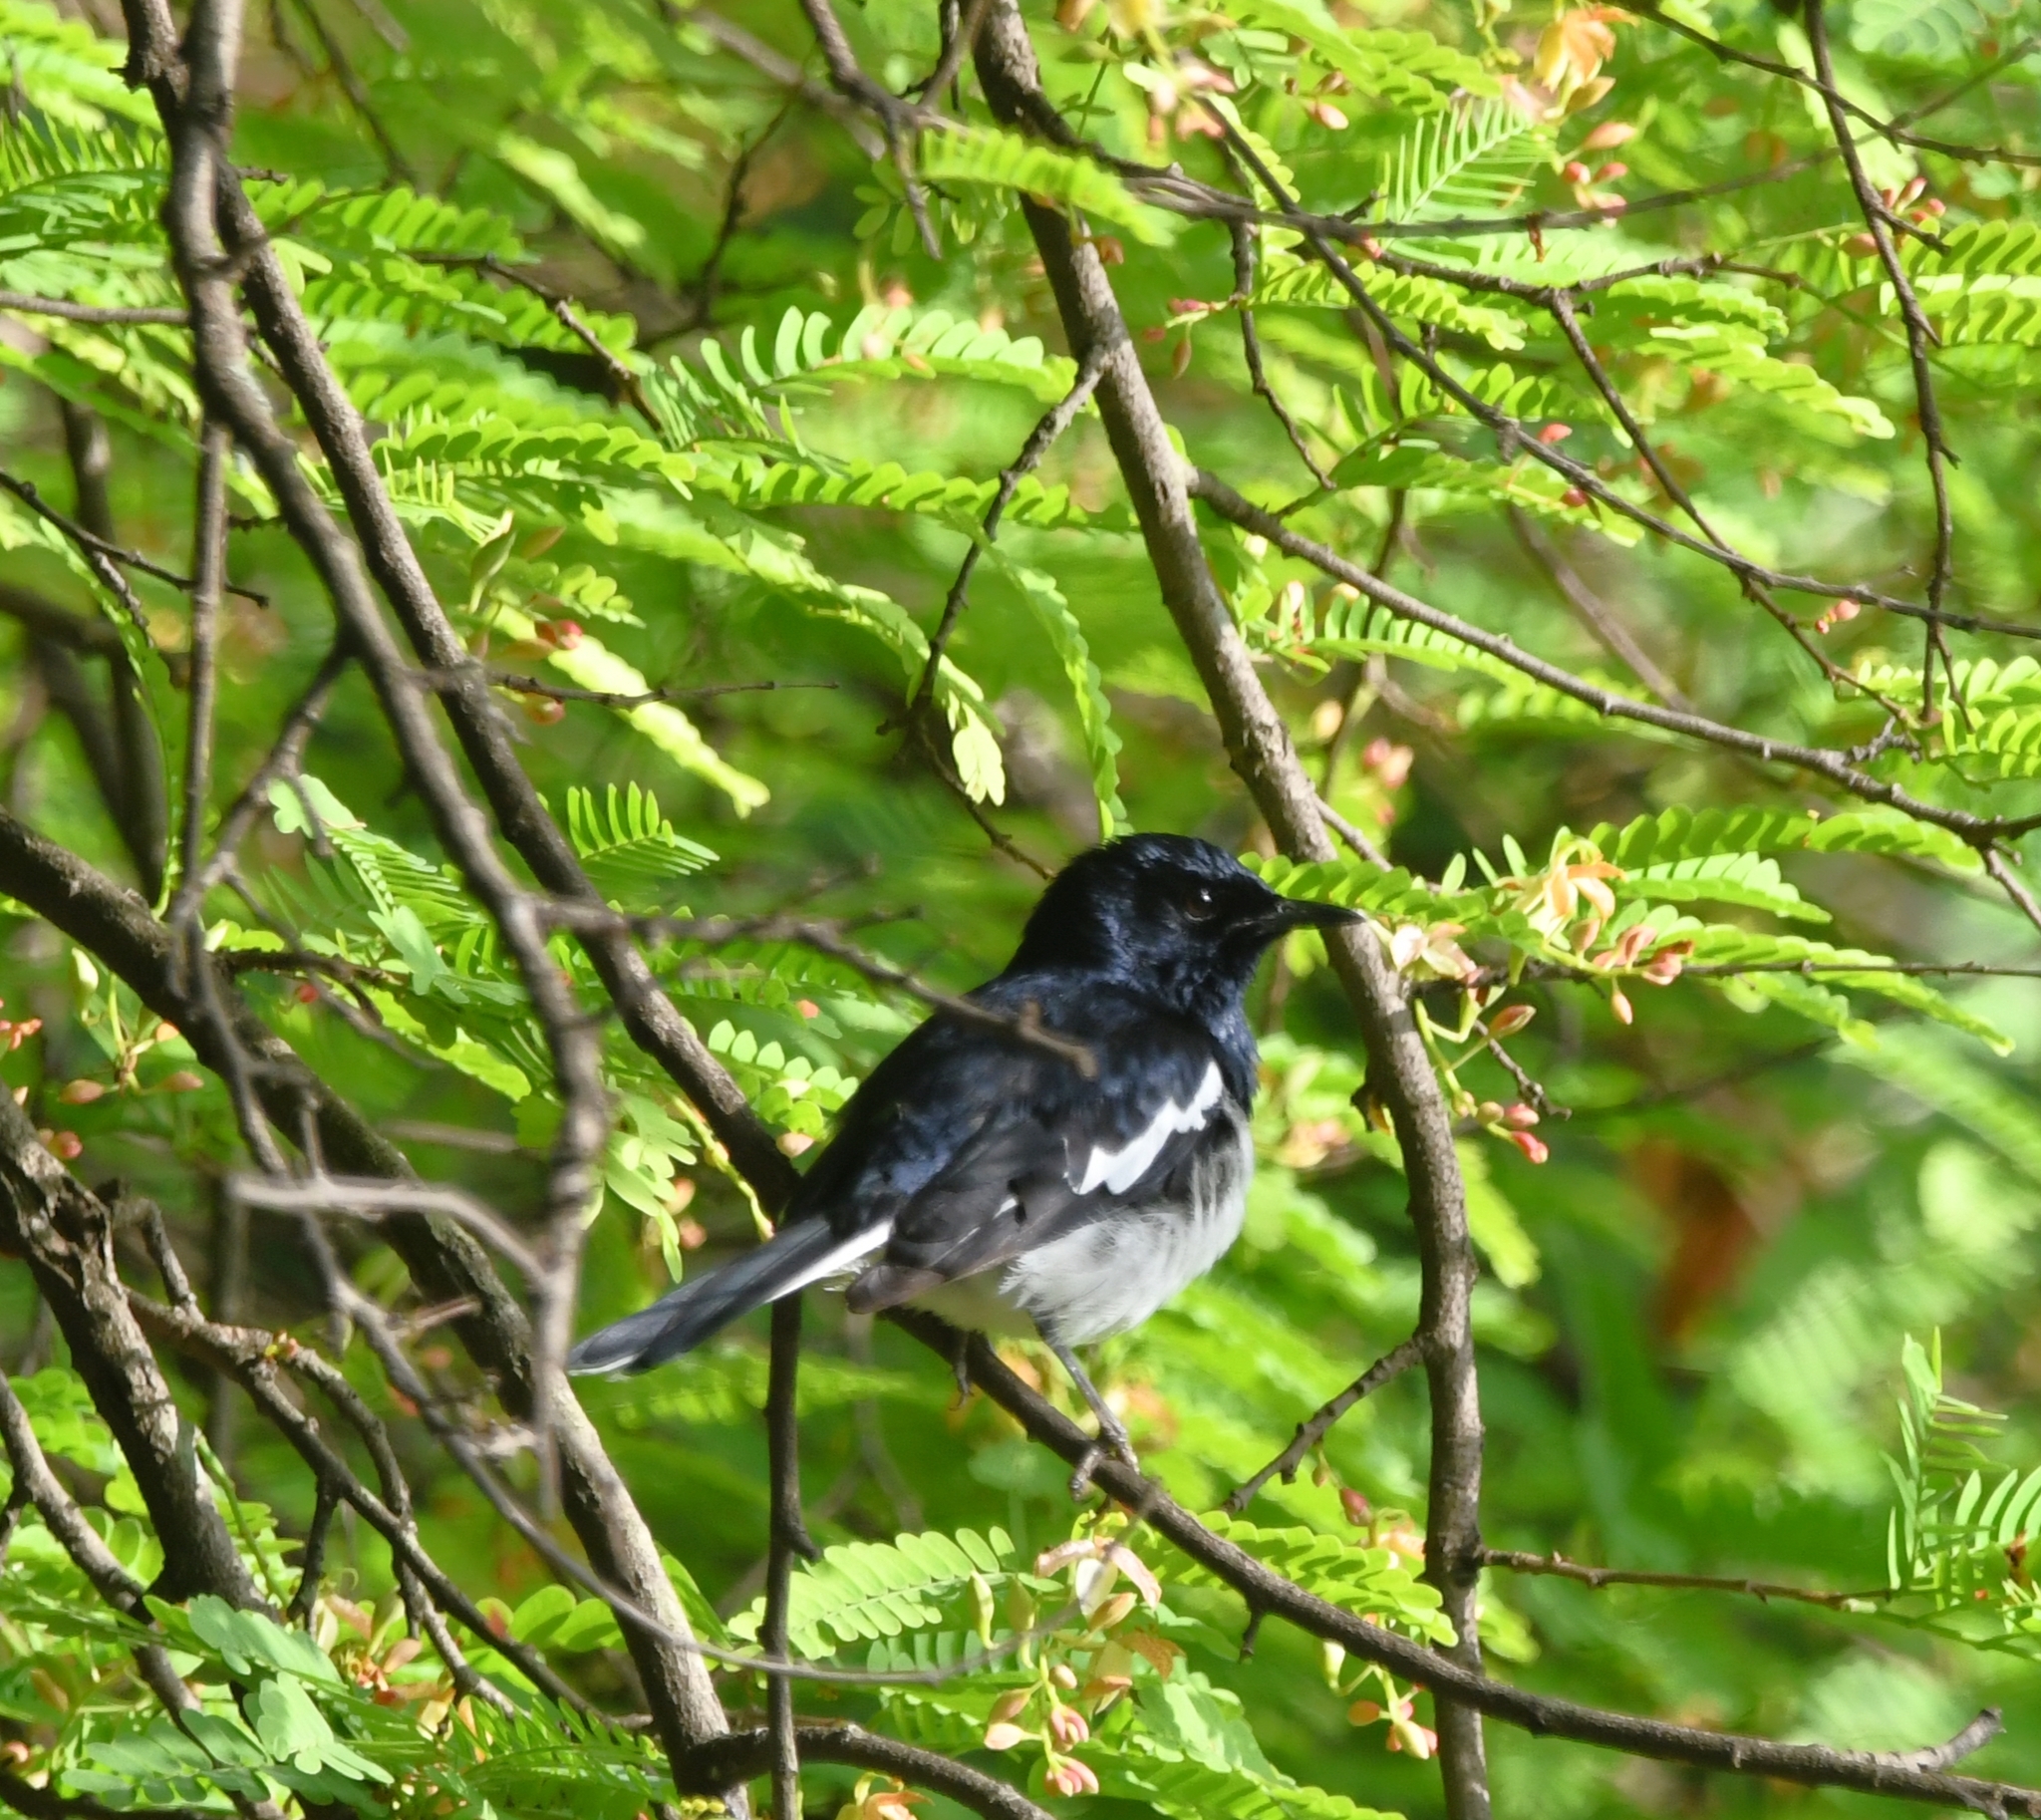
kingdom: Animalia
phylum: Chordata
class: Aves
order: Passeriformes
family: Muscicapidae
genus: Copsychus
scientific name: Copsychus saularis
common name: Oriental magpie-robin
